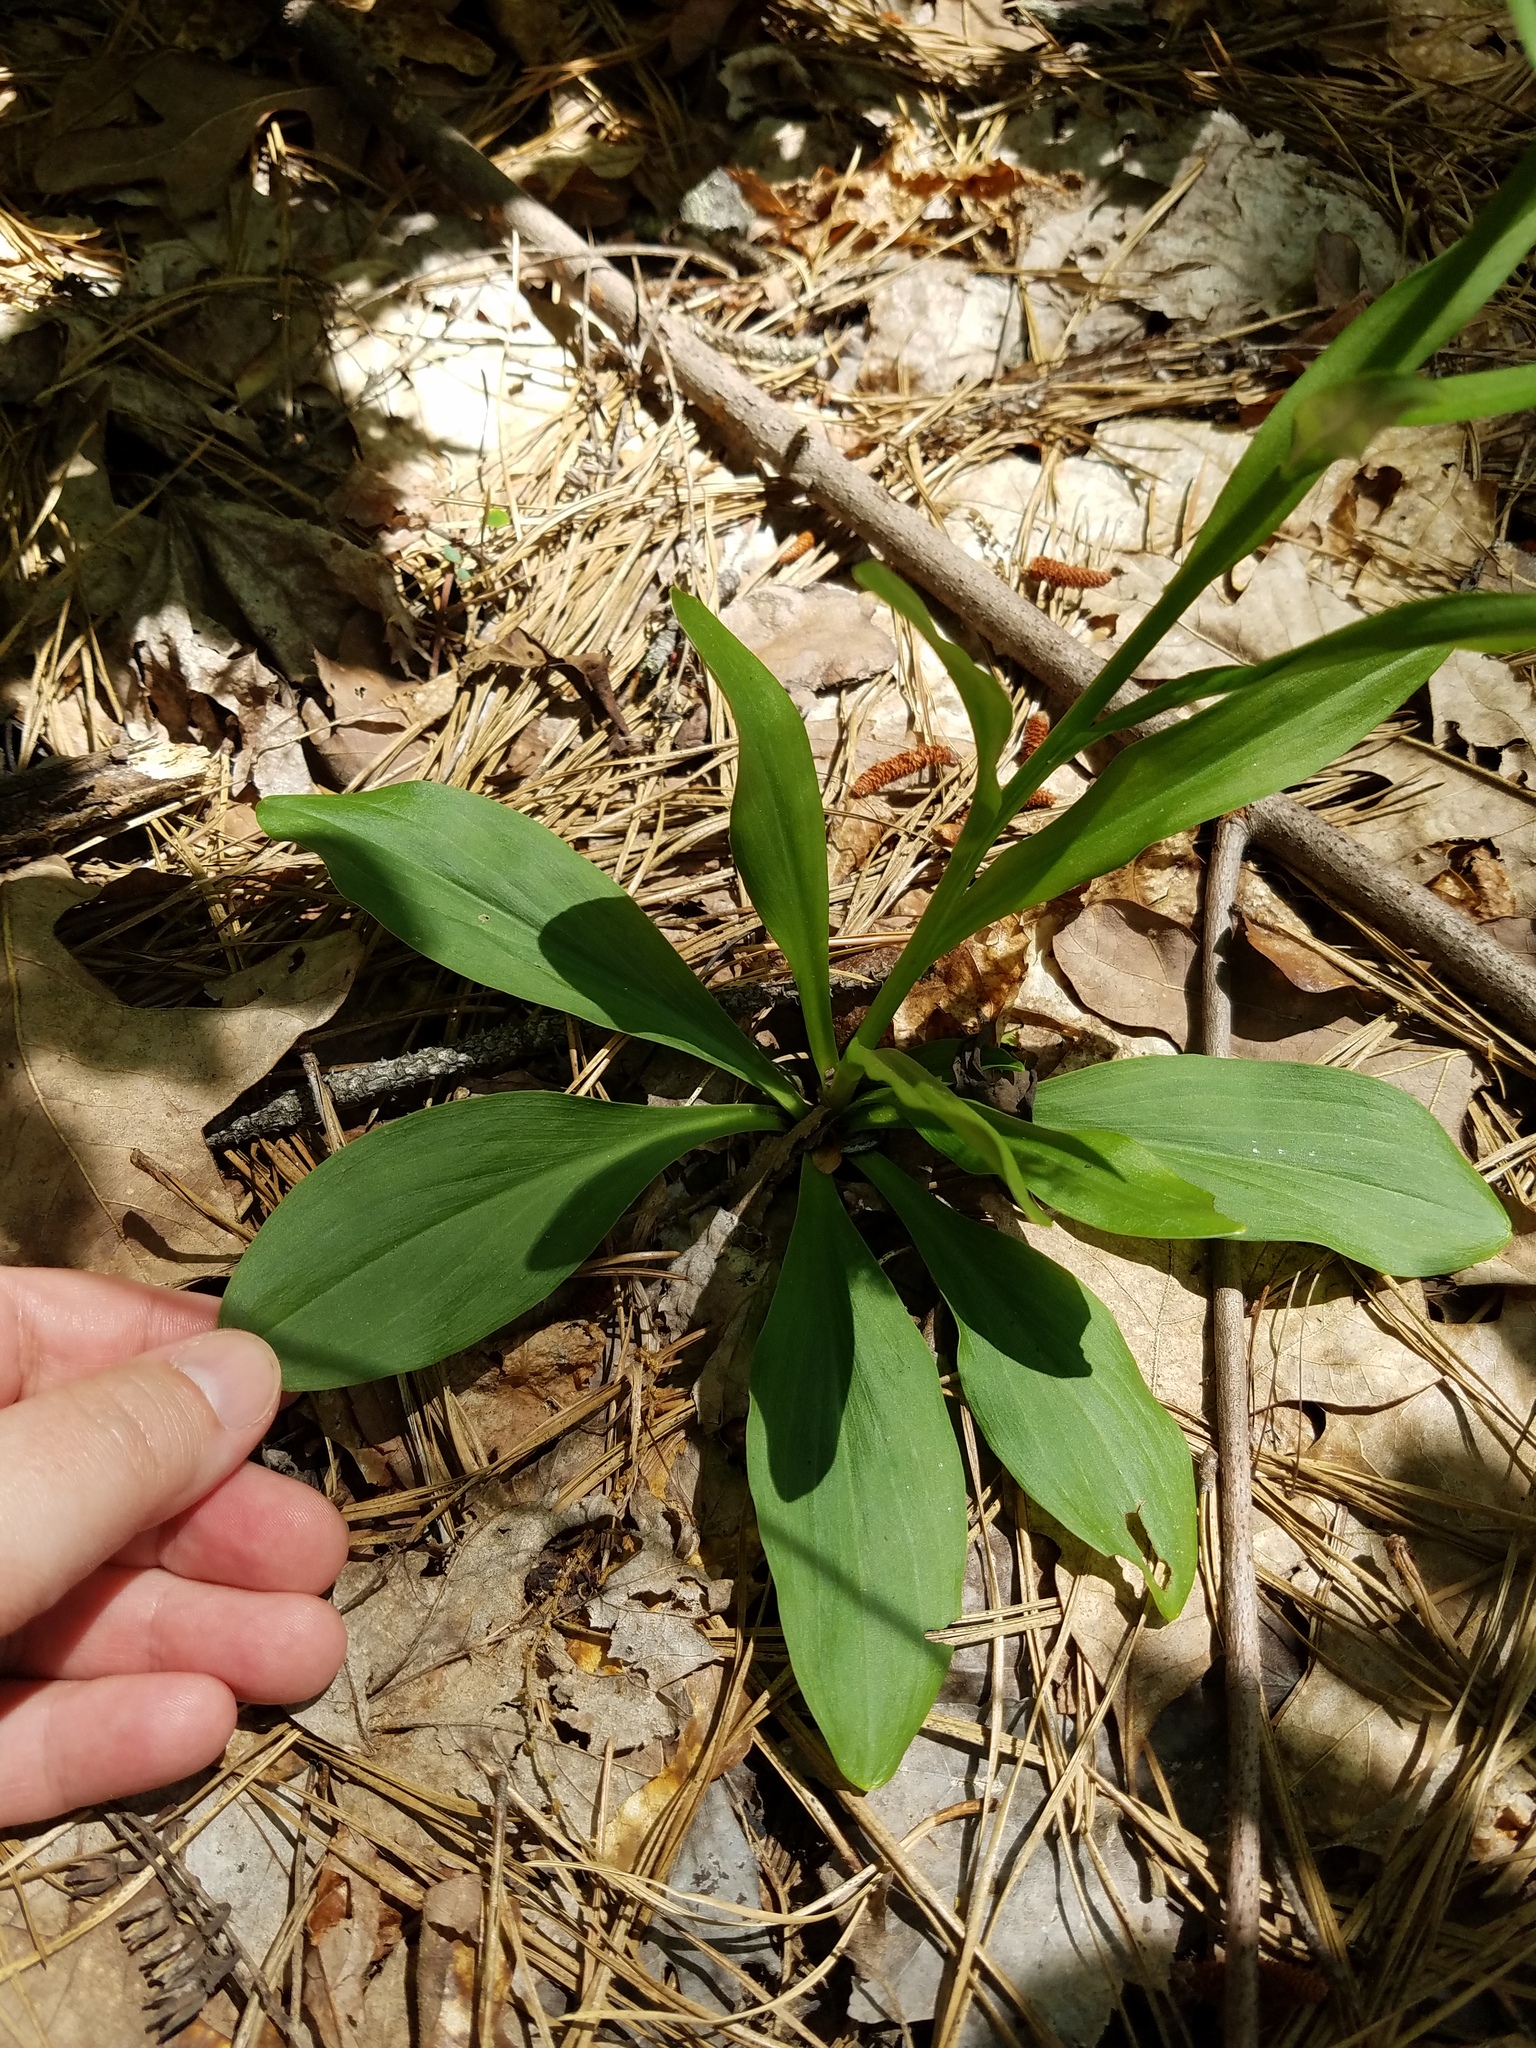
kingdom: Plantae
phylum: Tracheophyta
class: Liliopsida
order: Liliales
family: Melanthiaceae
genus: Chamaelirium
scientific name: Chamaelirium luteum
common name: Fairy-wand
